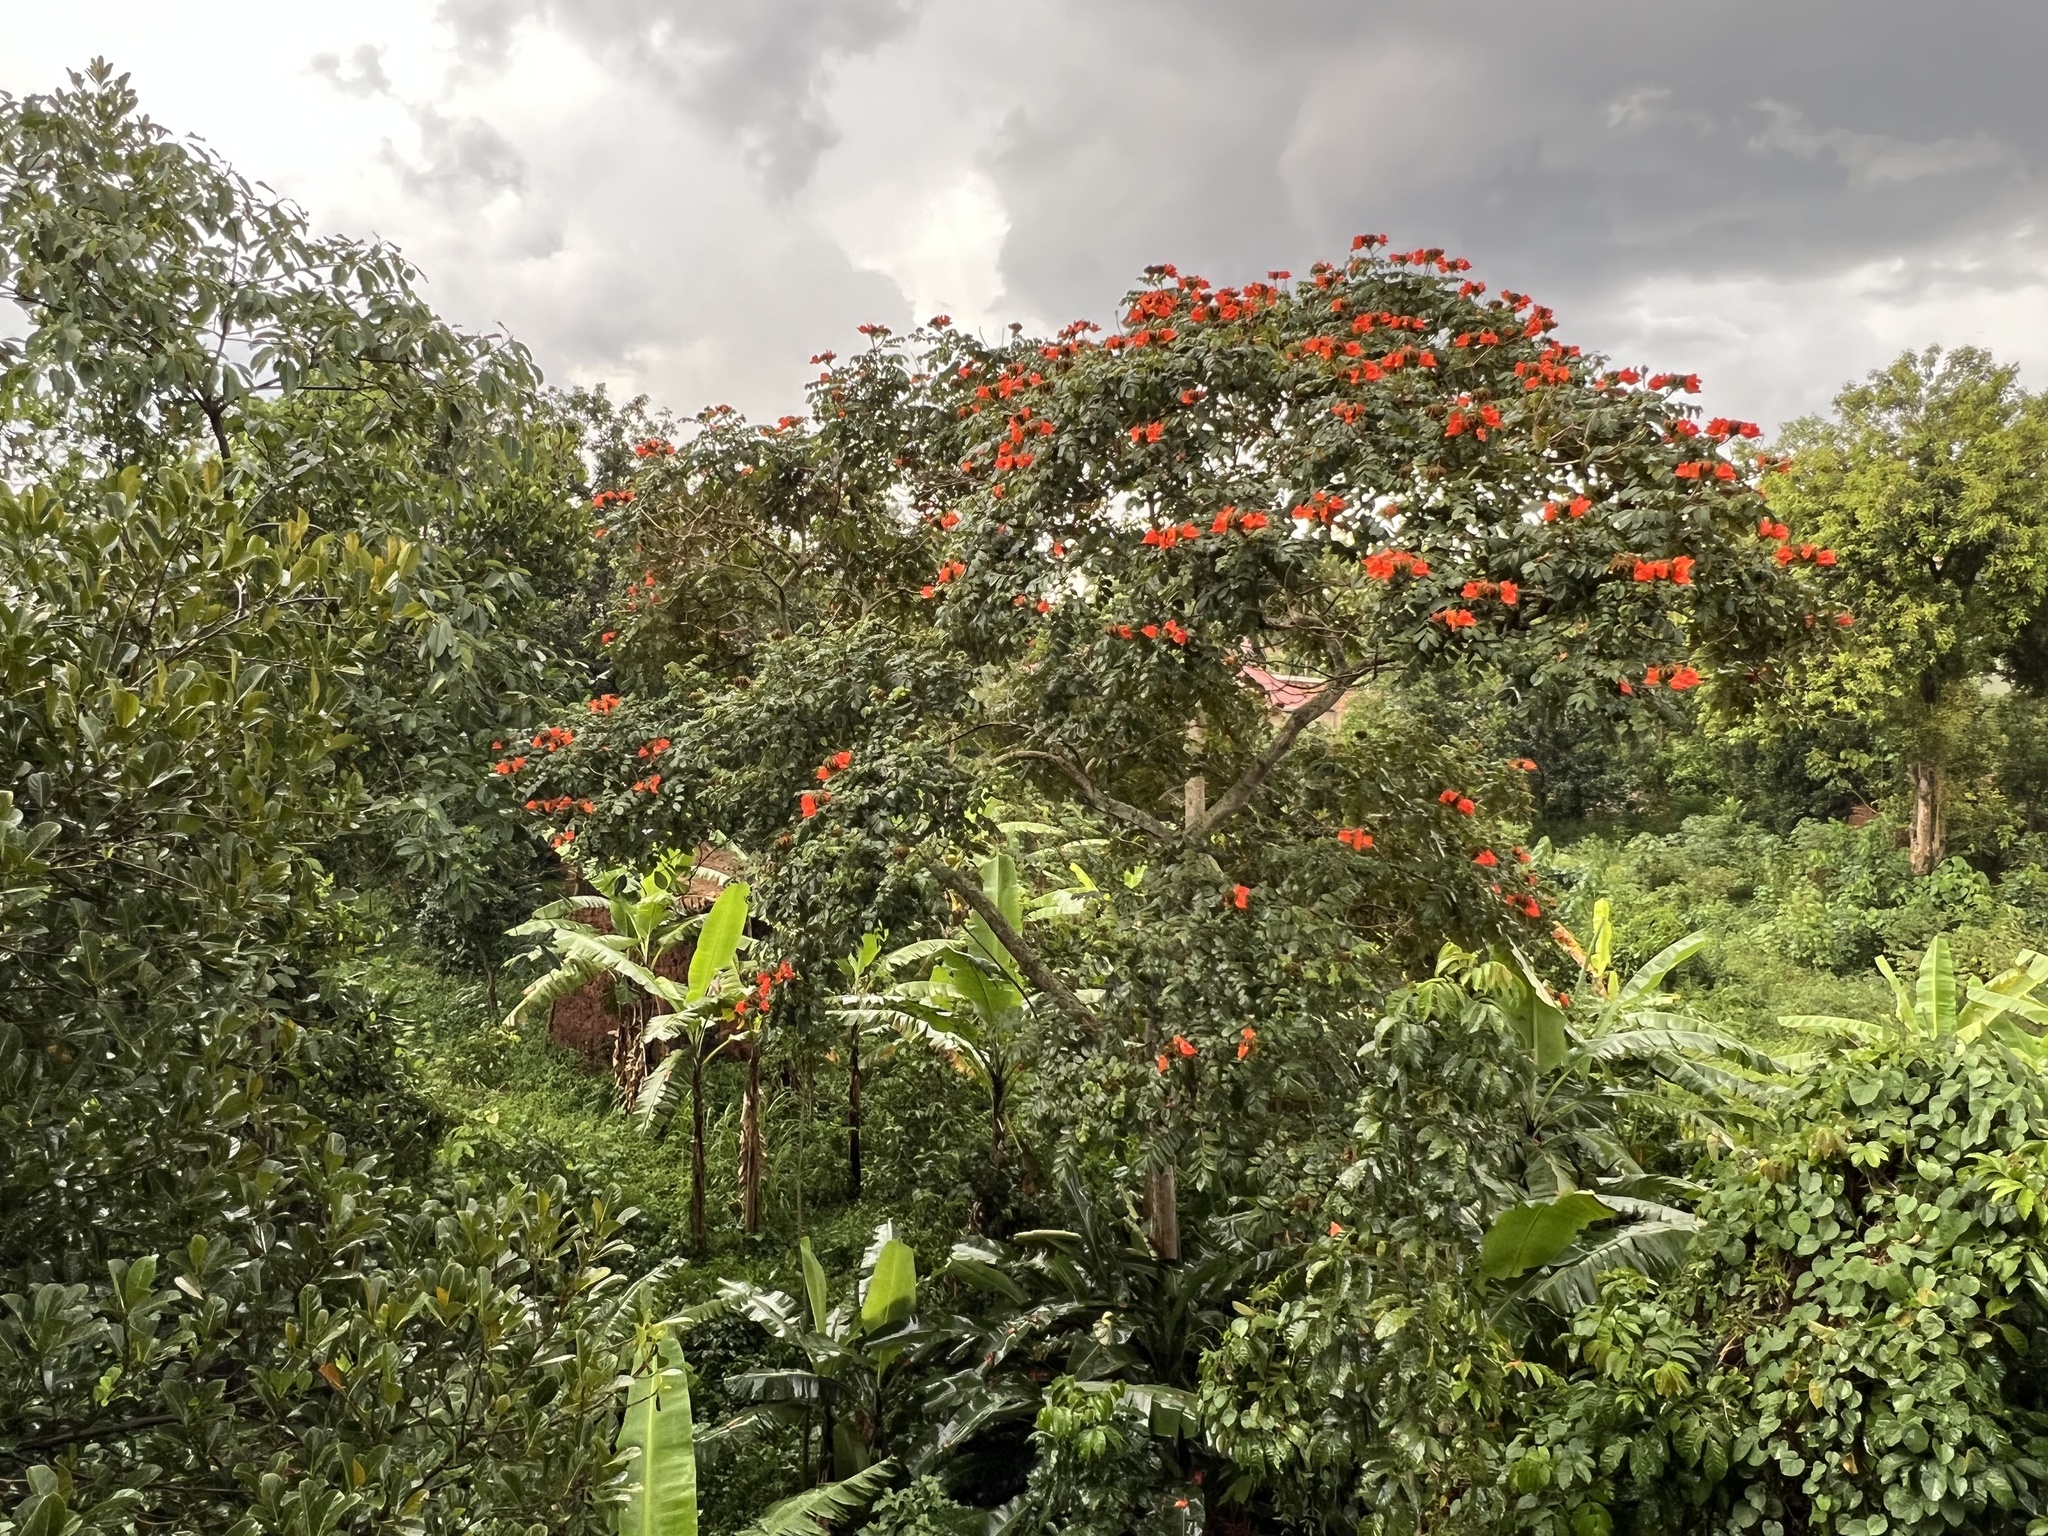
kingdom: Plantae
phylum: Tracheophyta
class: Magnoliopsida
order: Lamiales
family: Bignoniaceae
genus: Spathodea
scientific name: Spathodea campanulata
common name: African tuliptree
